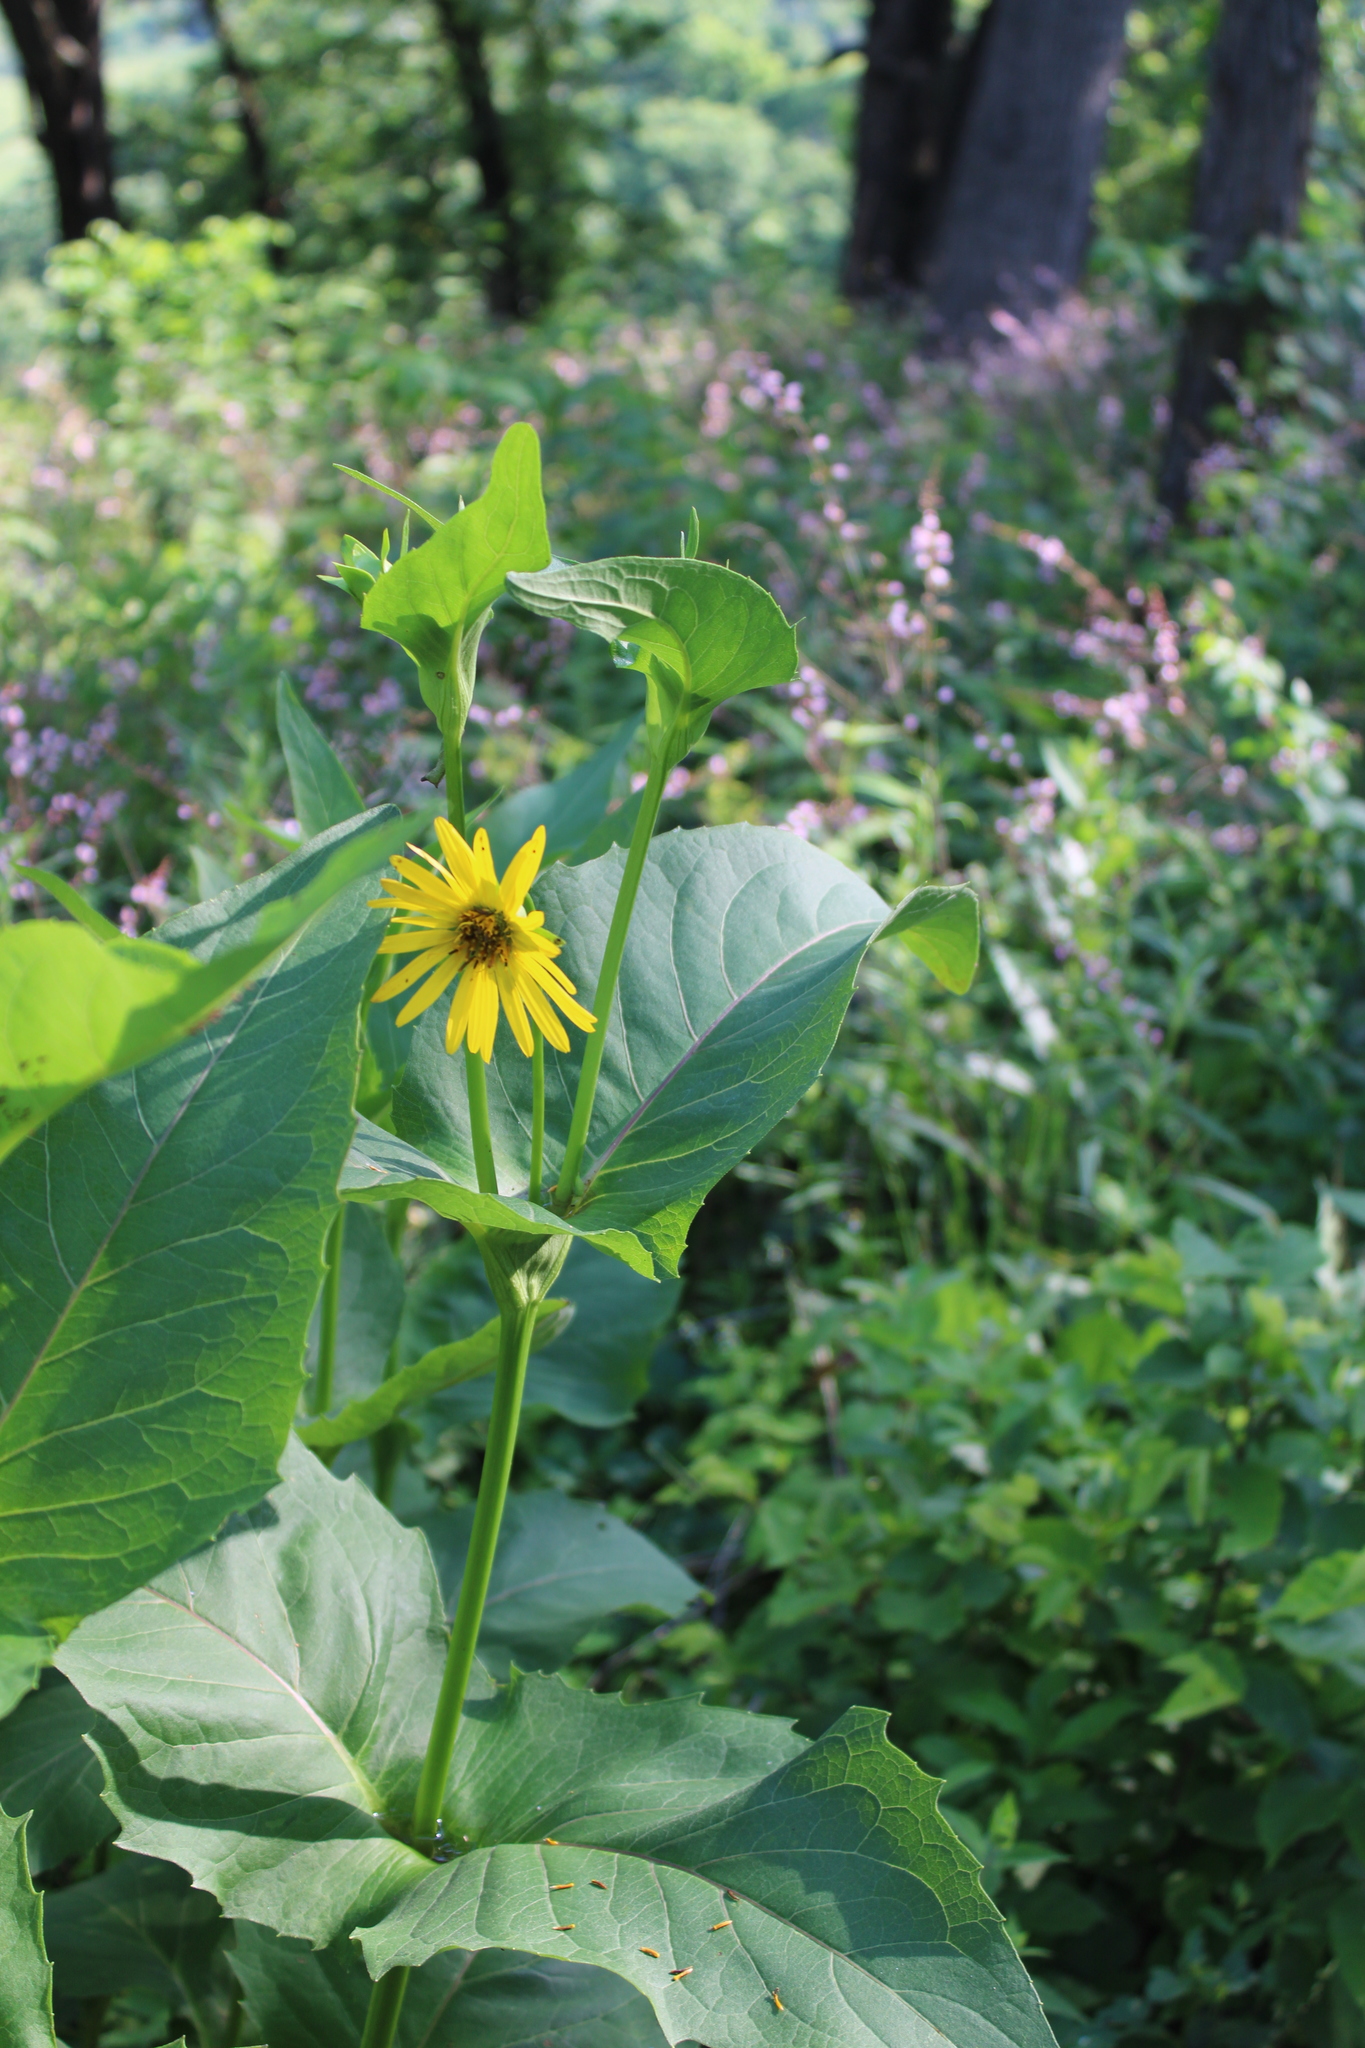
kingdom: Plantae
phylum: Tracheophyta
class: Magnoliopsida
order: Asterales
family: Asteraceae
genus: Silphium
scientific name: Silphium perfoliatum
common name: Cup-plant
